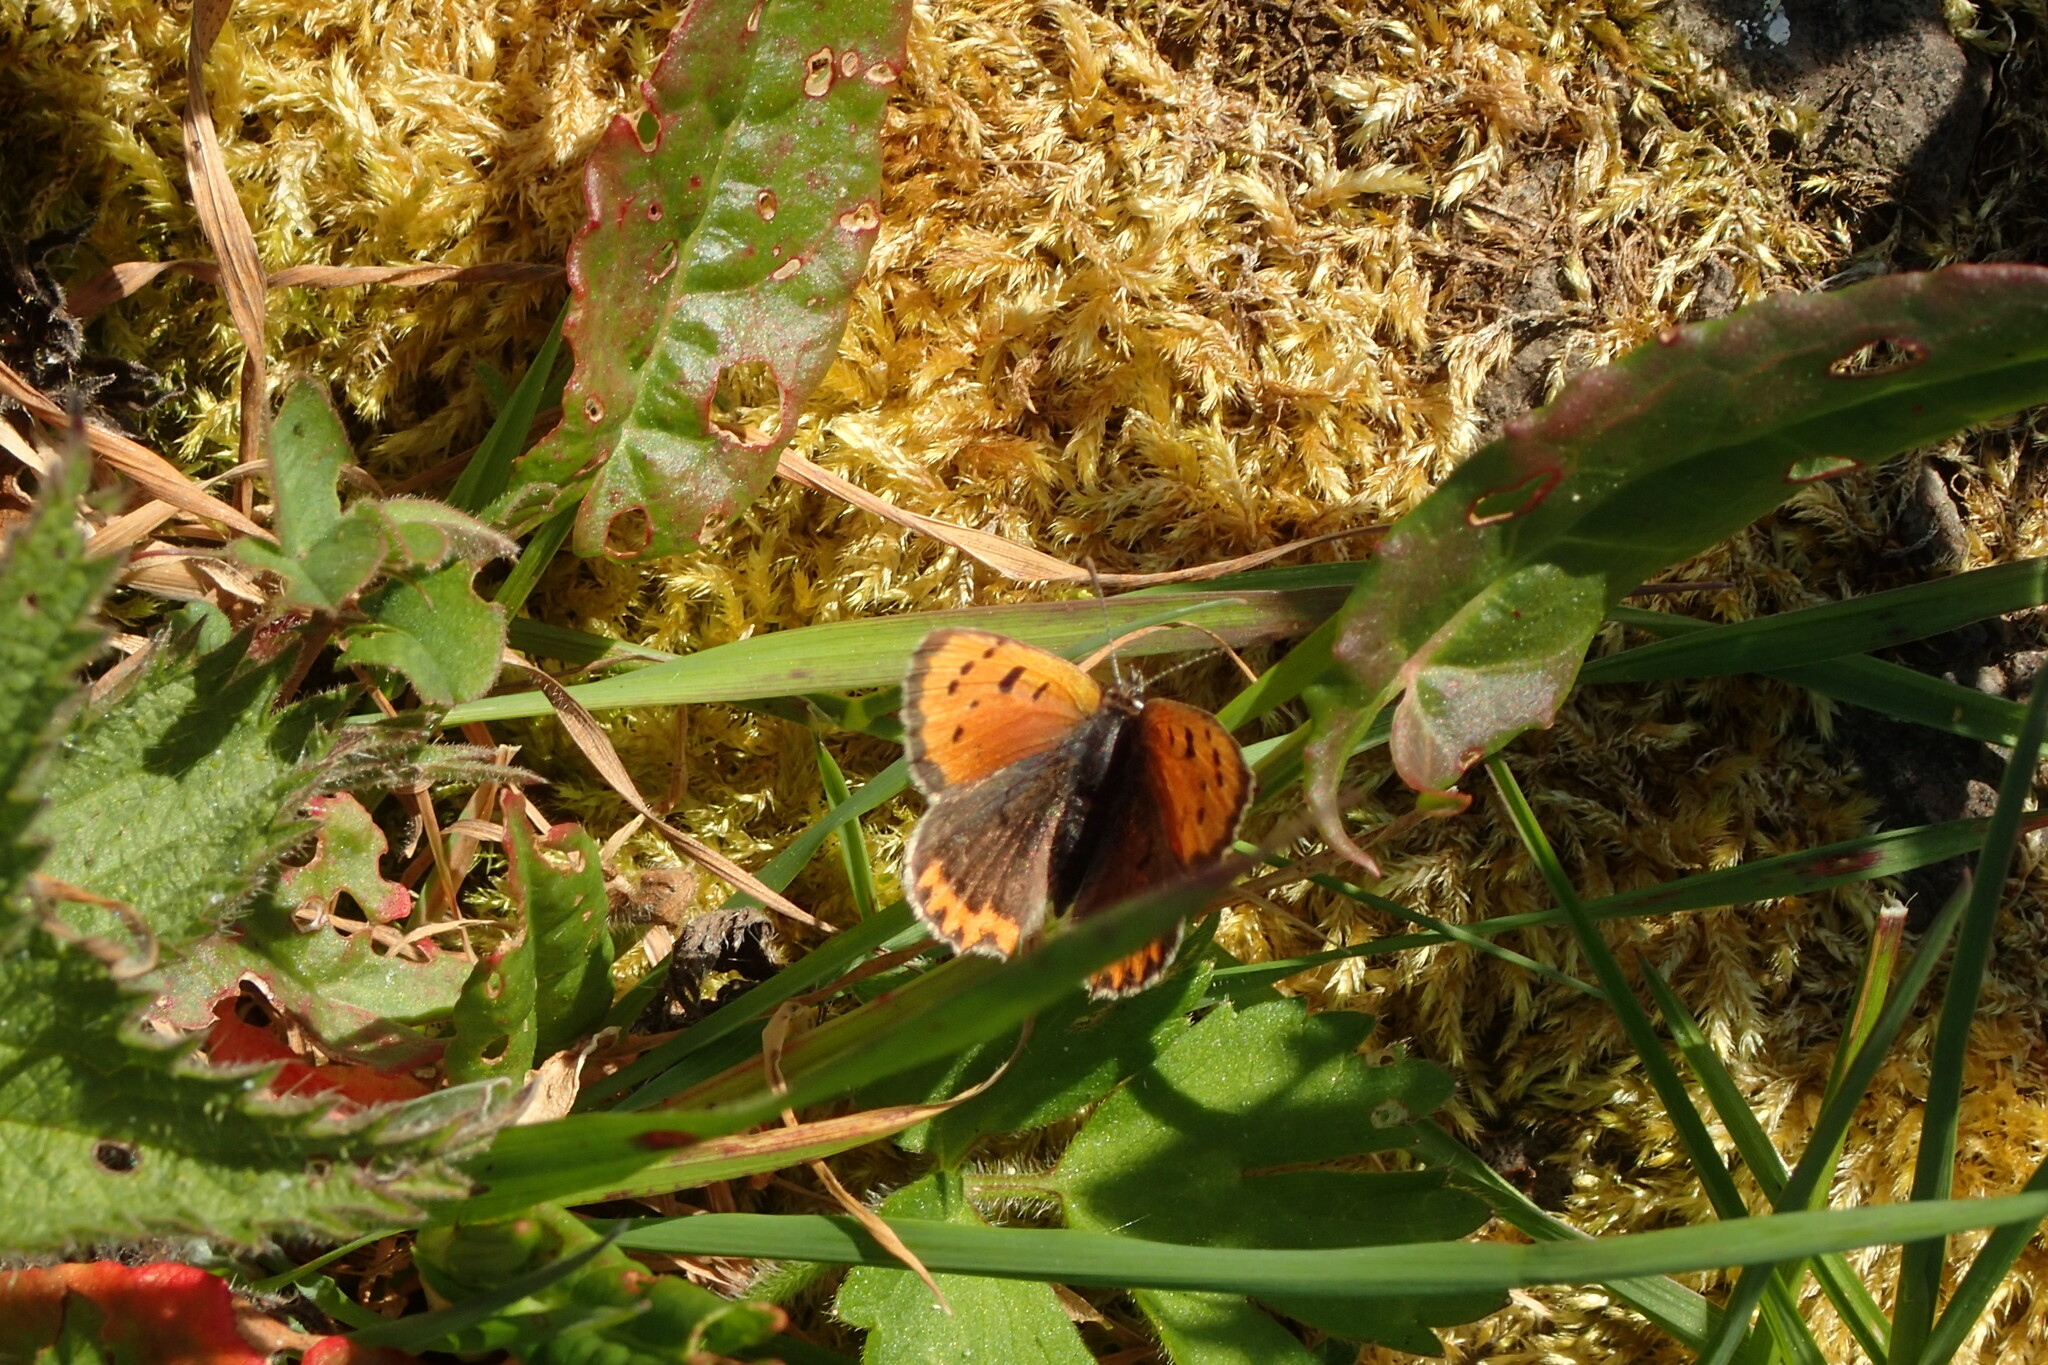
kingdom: Animalia
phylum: Arthropoda
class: Insecta
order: Lepidoptera
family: Lycaenidae
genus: Lycaena
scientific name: Lycaena phlaeas
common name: Small copper
